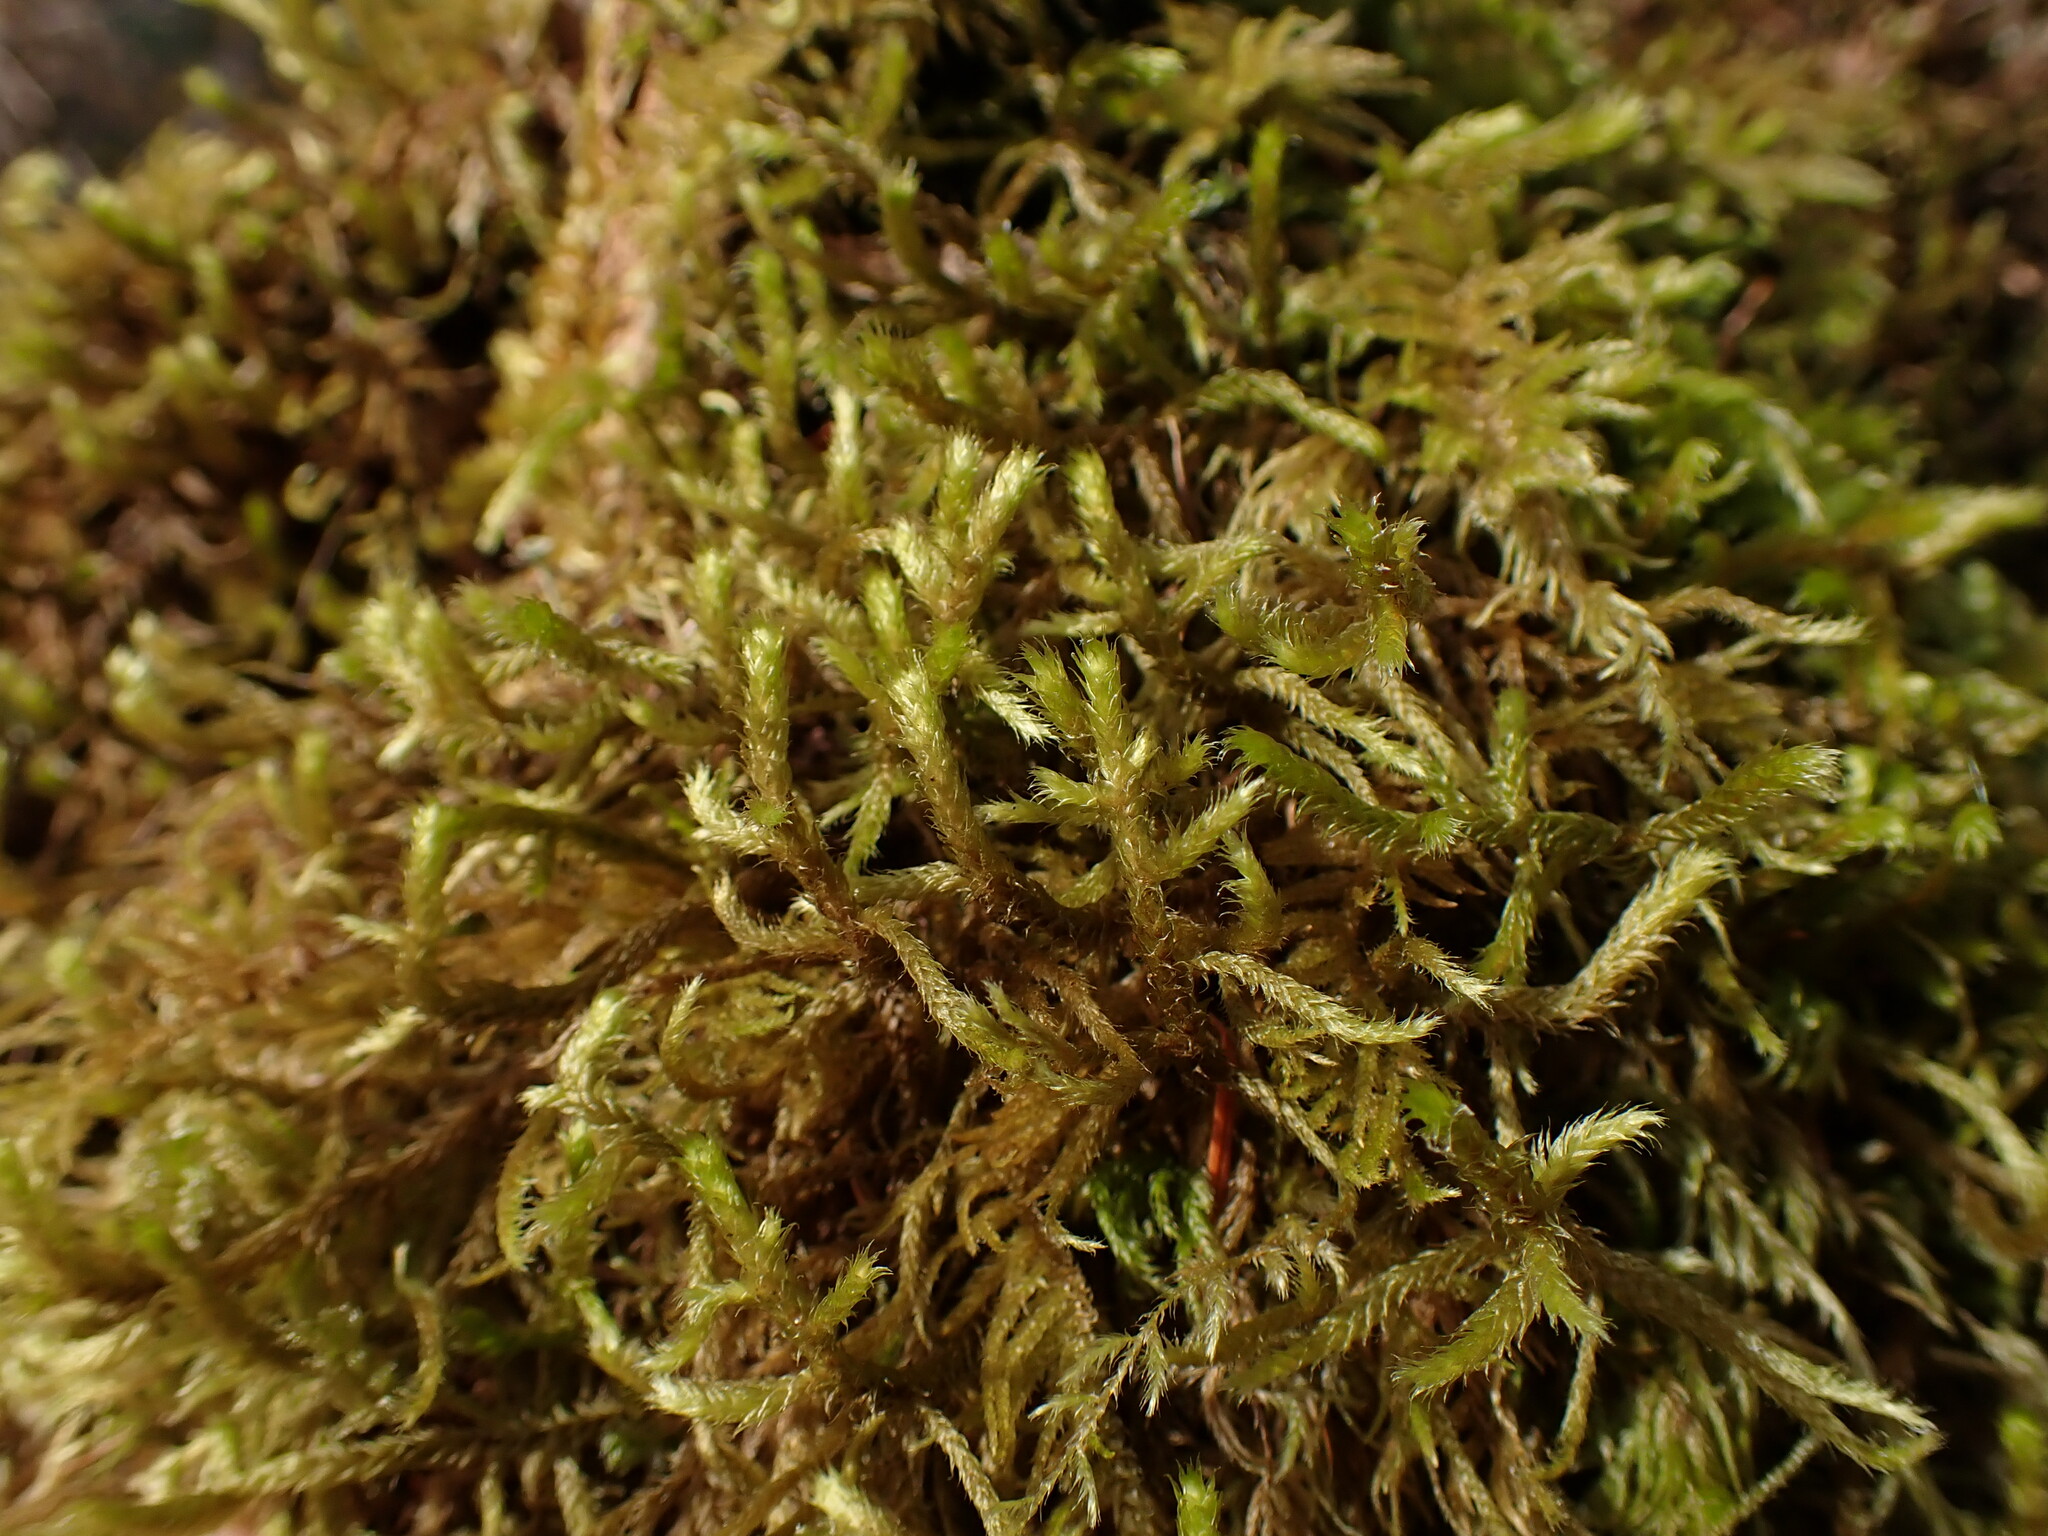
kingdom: Plantae
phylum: Bryophyta
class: Bryopsida
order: Hypnales
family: Antitrichiaceae
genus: Antitrichia
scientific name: Antitrichia curtipendula
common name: Pendulous wing-moss
